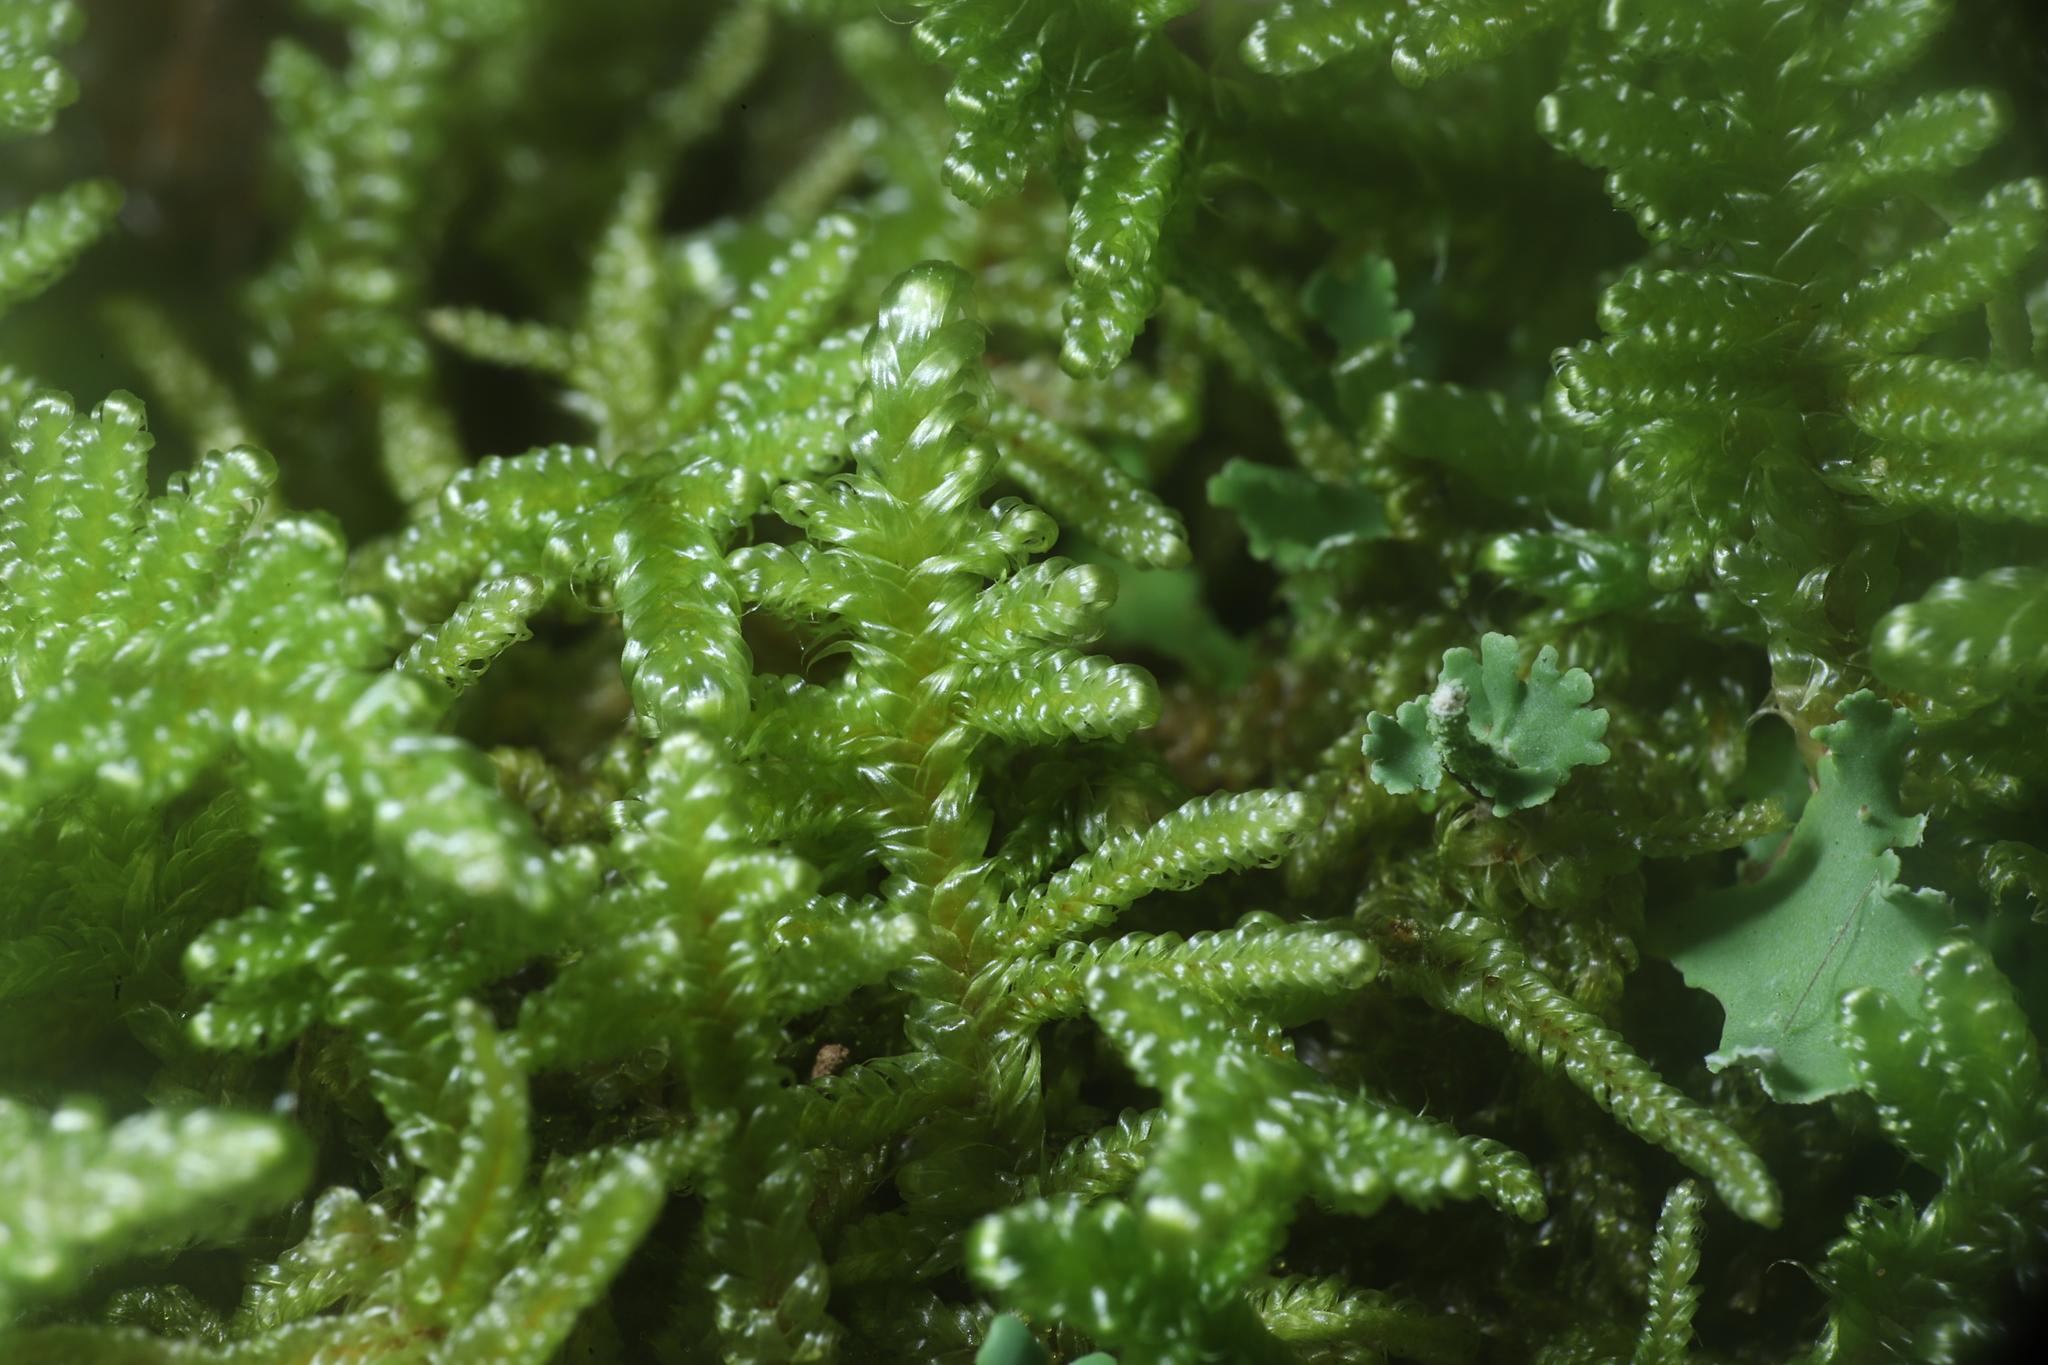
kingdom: Plantae
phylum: Bryophyta
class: Bryopsida
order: Hypnales
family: Callicladiaceae
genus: Callicladium
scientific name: Callicladium imponens
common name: Brocade moss
